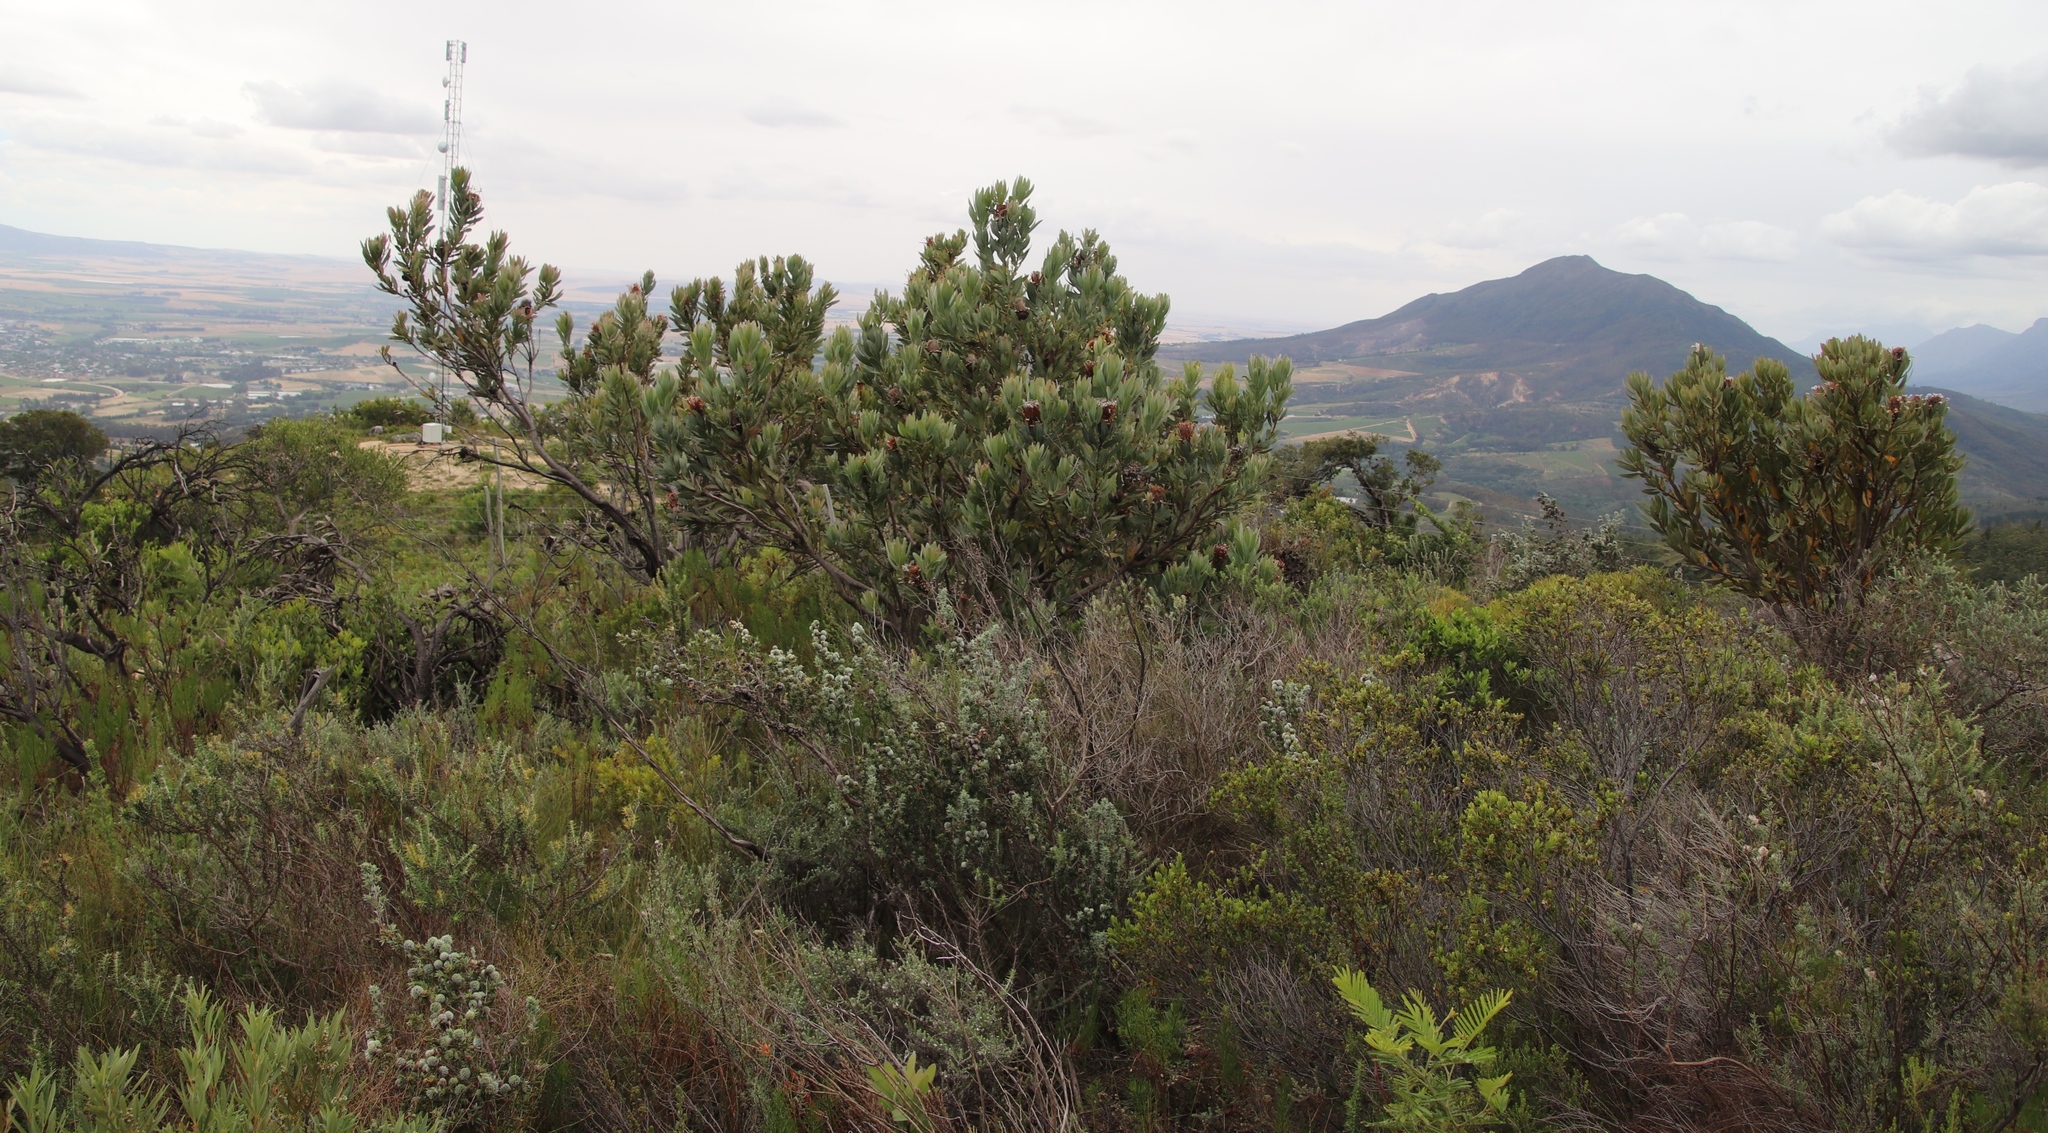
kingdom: Plantae
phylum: Tracheophyta
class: Magnoliopsida
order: Proteales
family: Proteaceae
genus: Protea
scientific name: Protea laurifolia
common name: Grey-leaf sugarbsh
